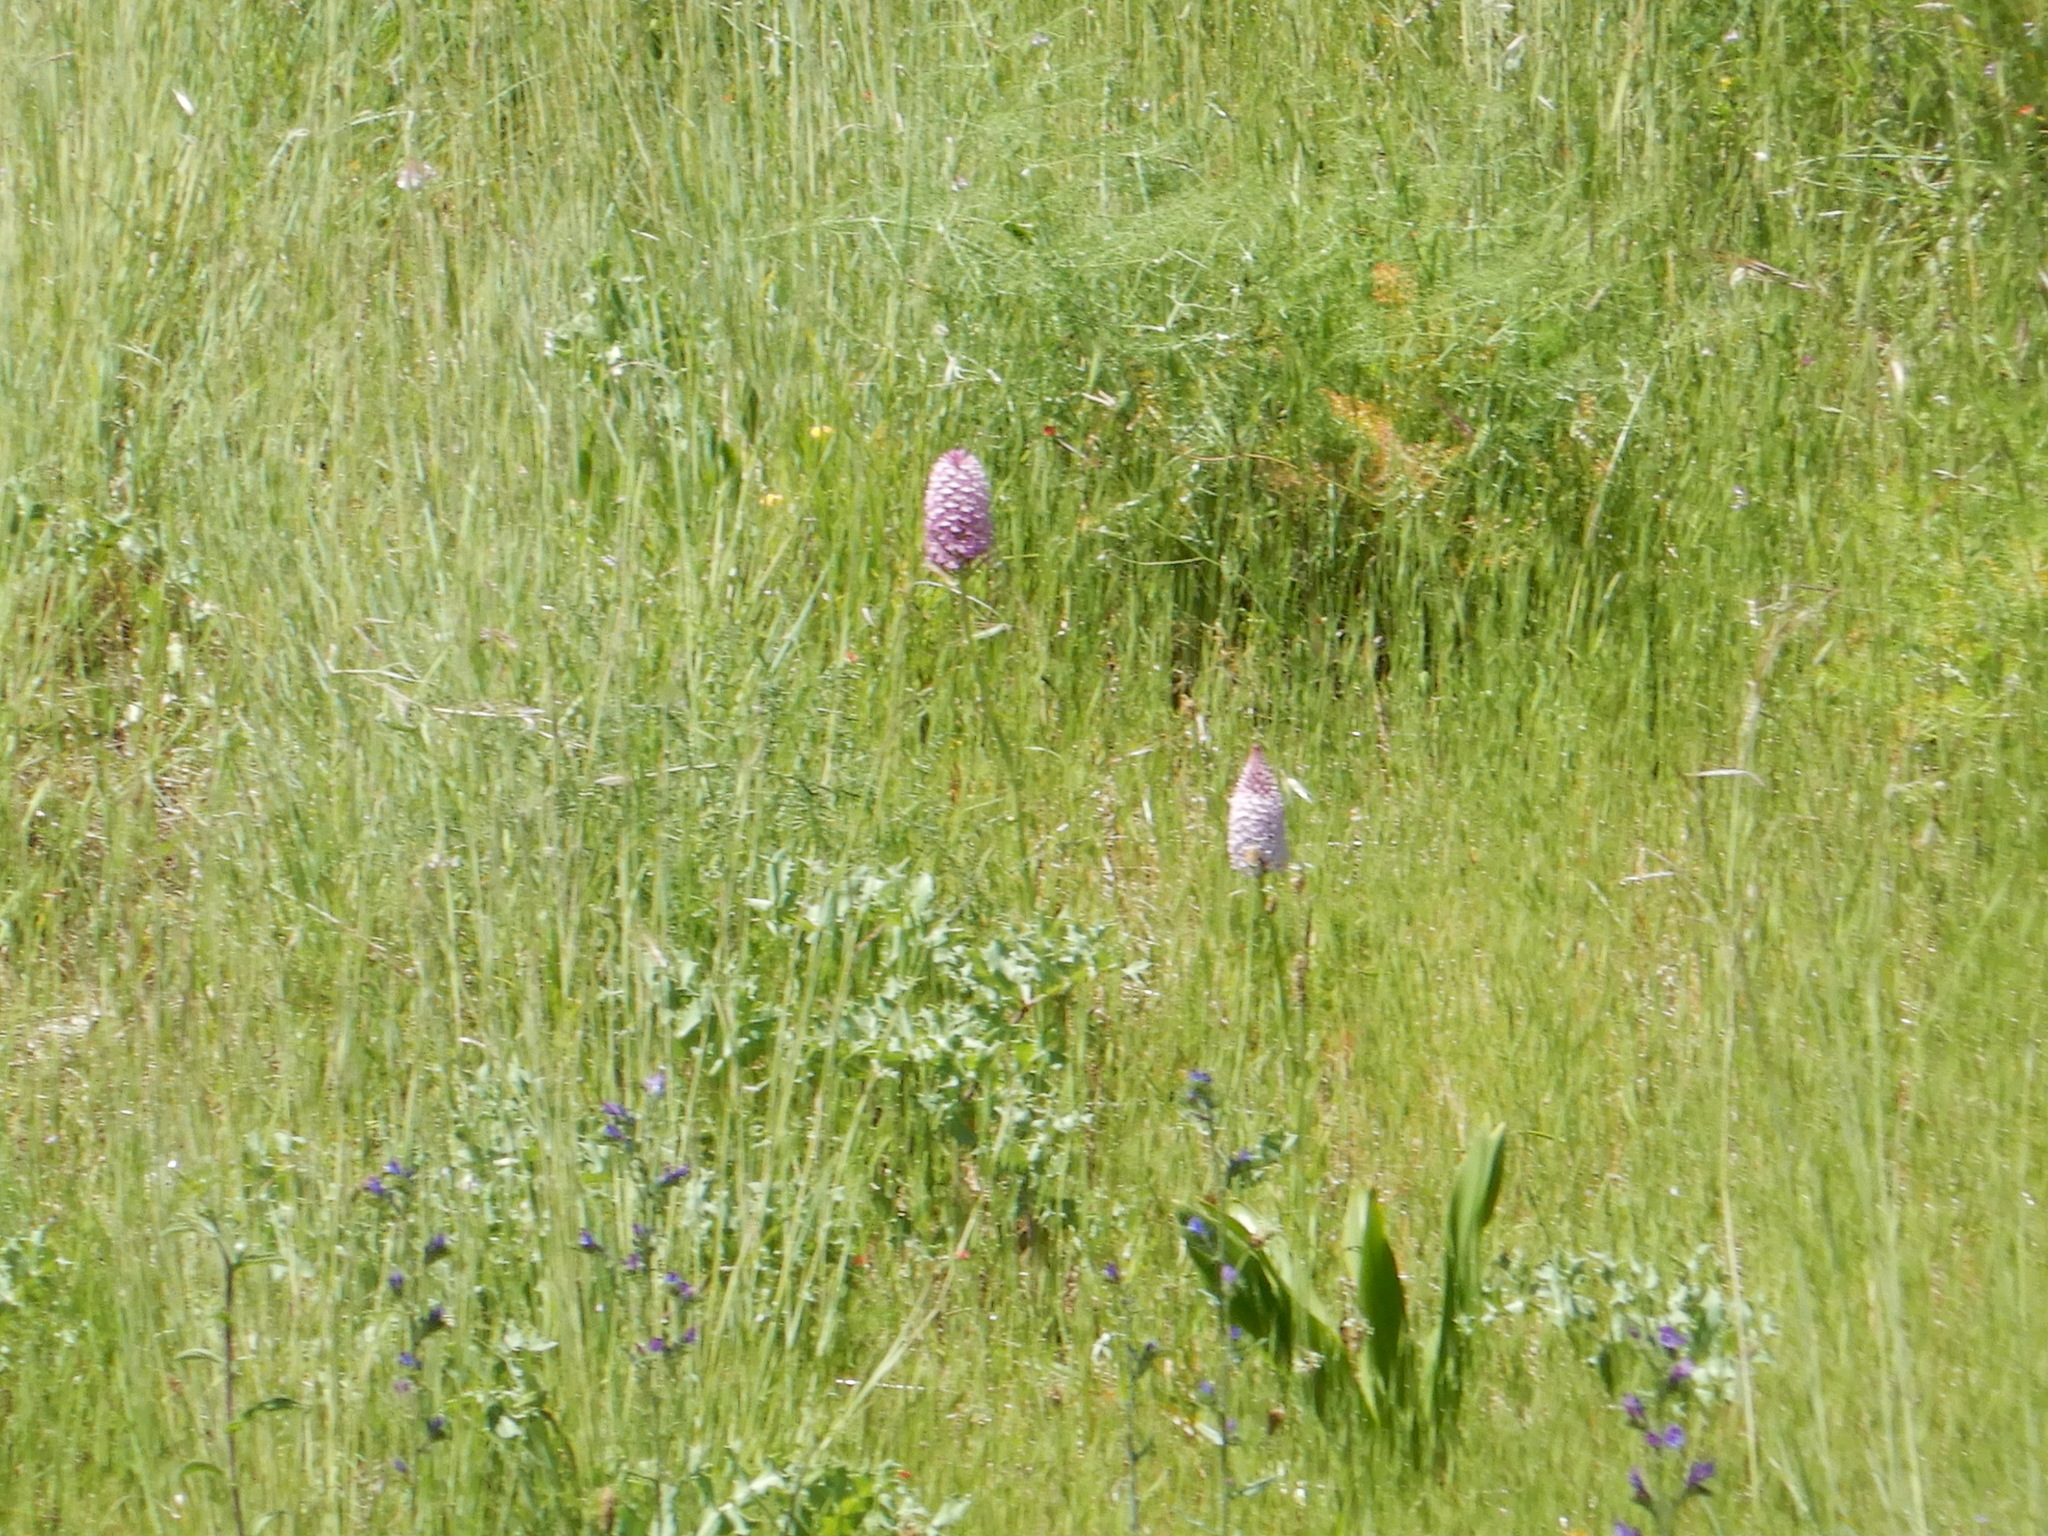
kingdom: Plantae
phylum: Tracheophyta
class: Liliopsida
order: Asparagales
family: Orchidaceae
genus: Anacamptis
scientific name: Anacamptis pyramidalis
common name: Pyramidal orchid
